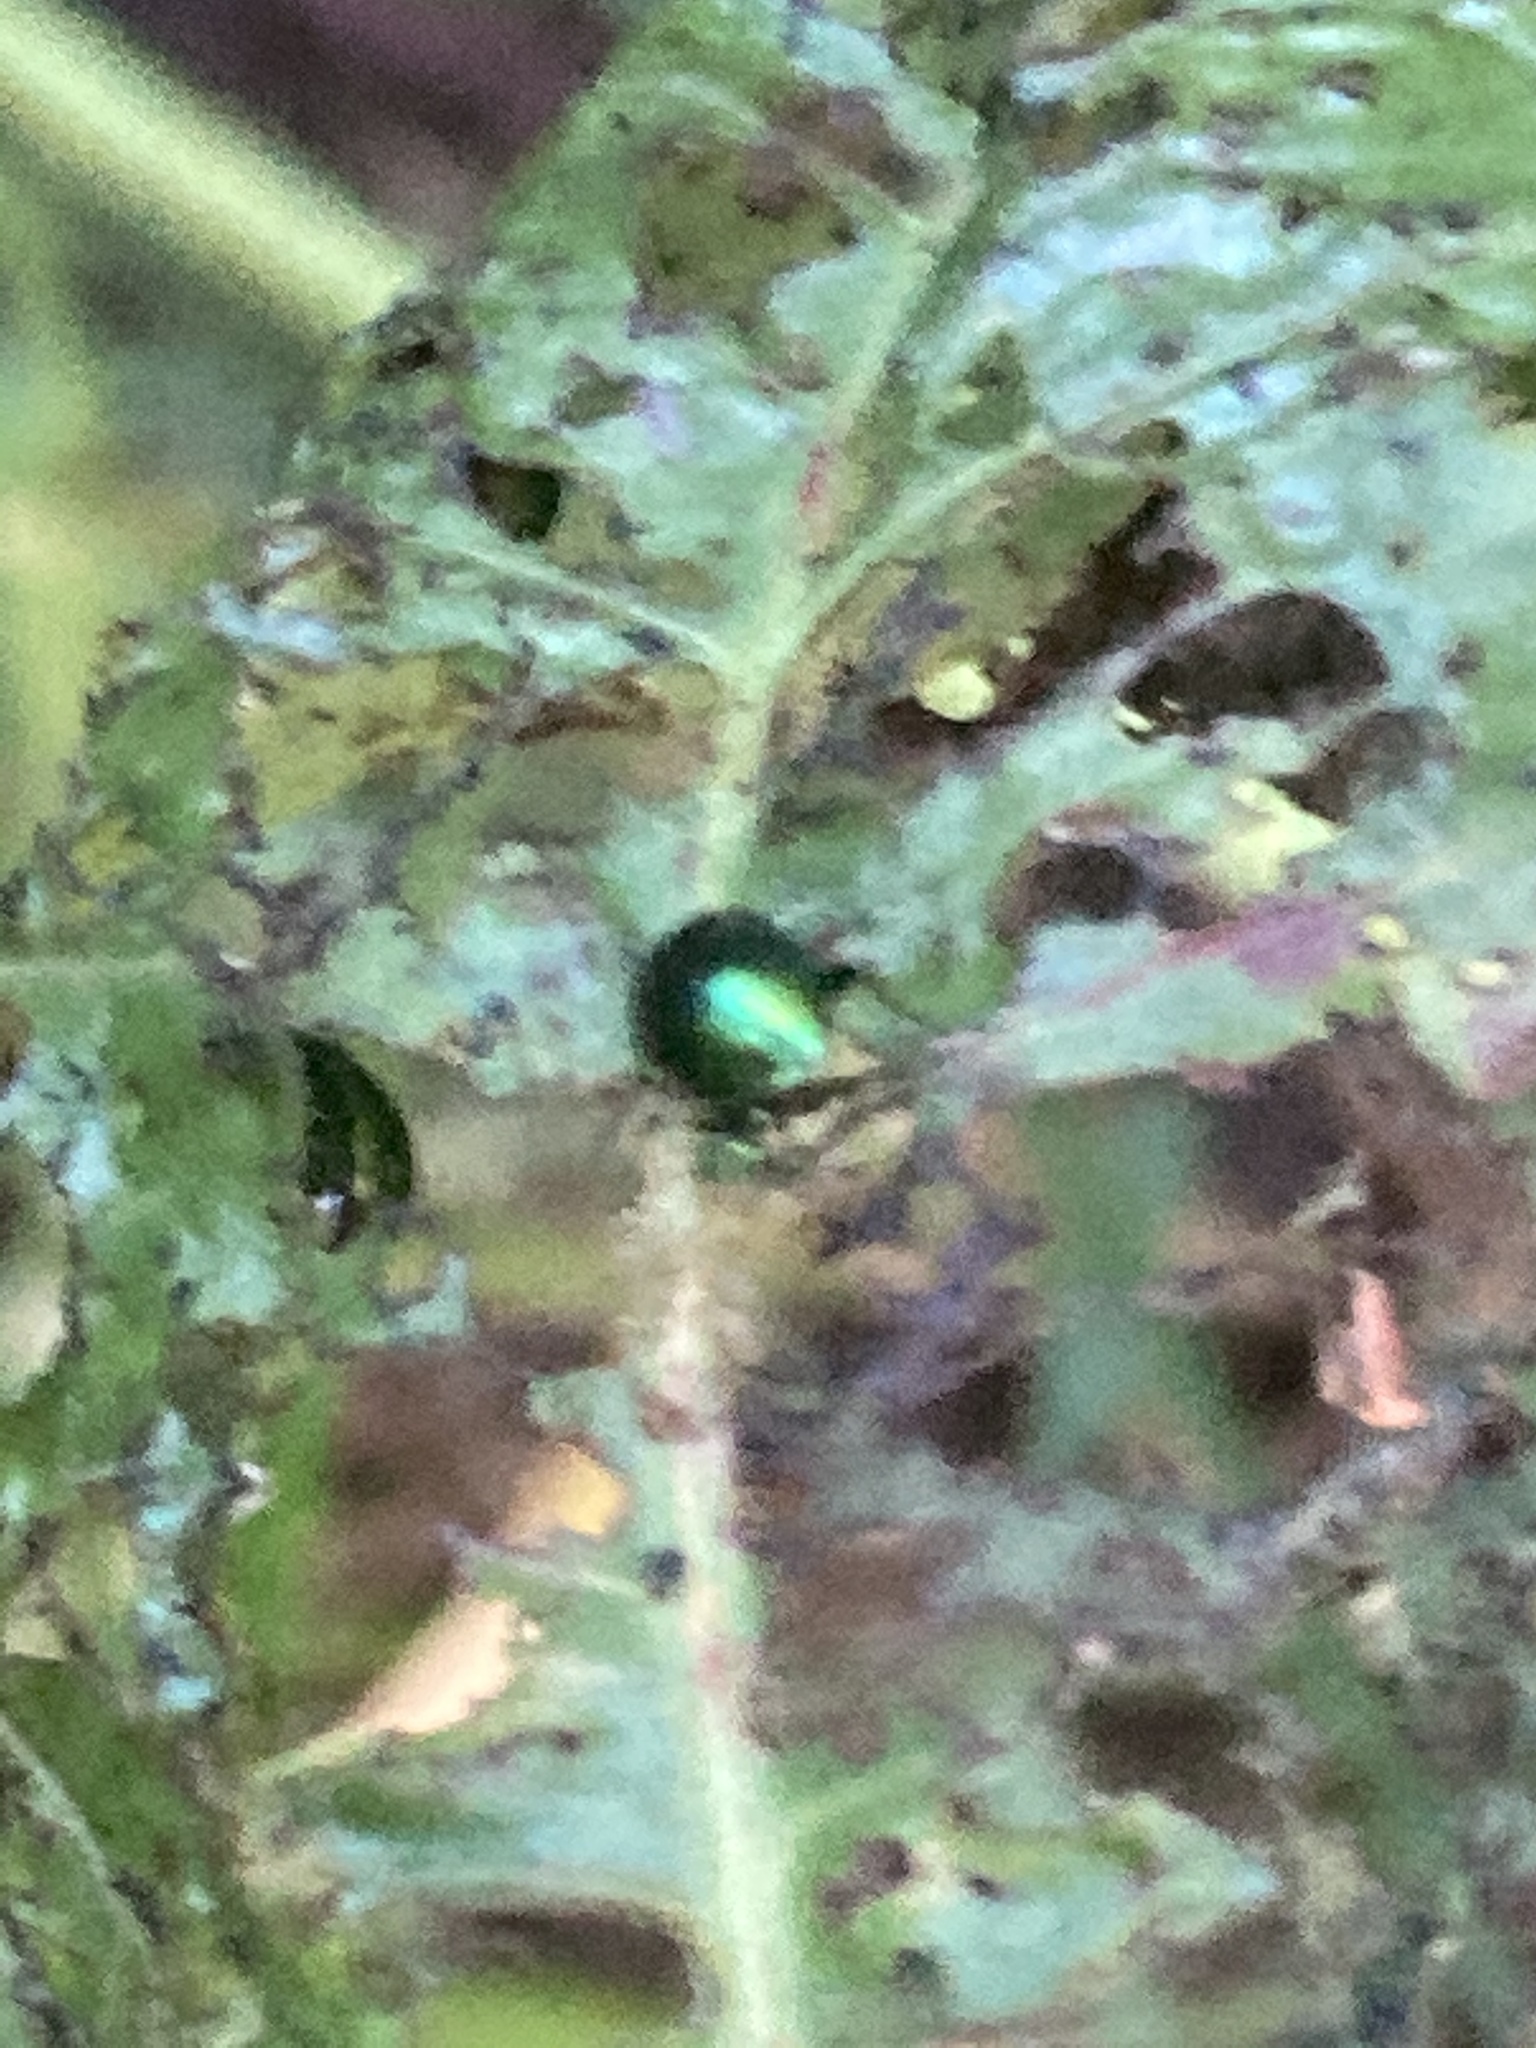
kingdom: Animalia
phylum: Arthropoda
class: Insecta
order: Coleoptera
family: Chrysomelidae
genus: Gastrophysa
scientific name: Gastrophysa viridula
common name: Green dock beetle
